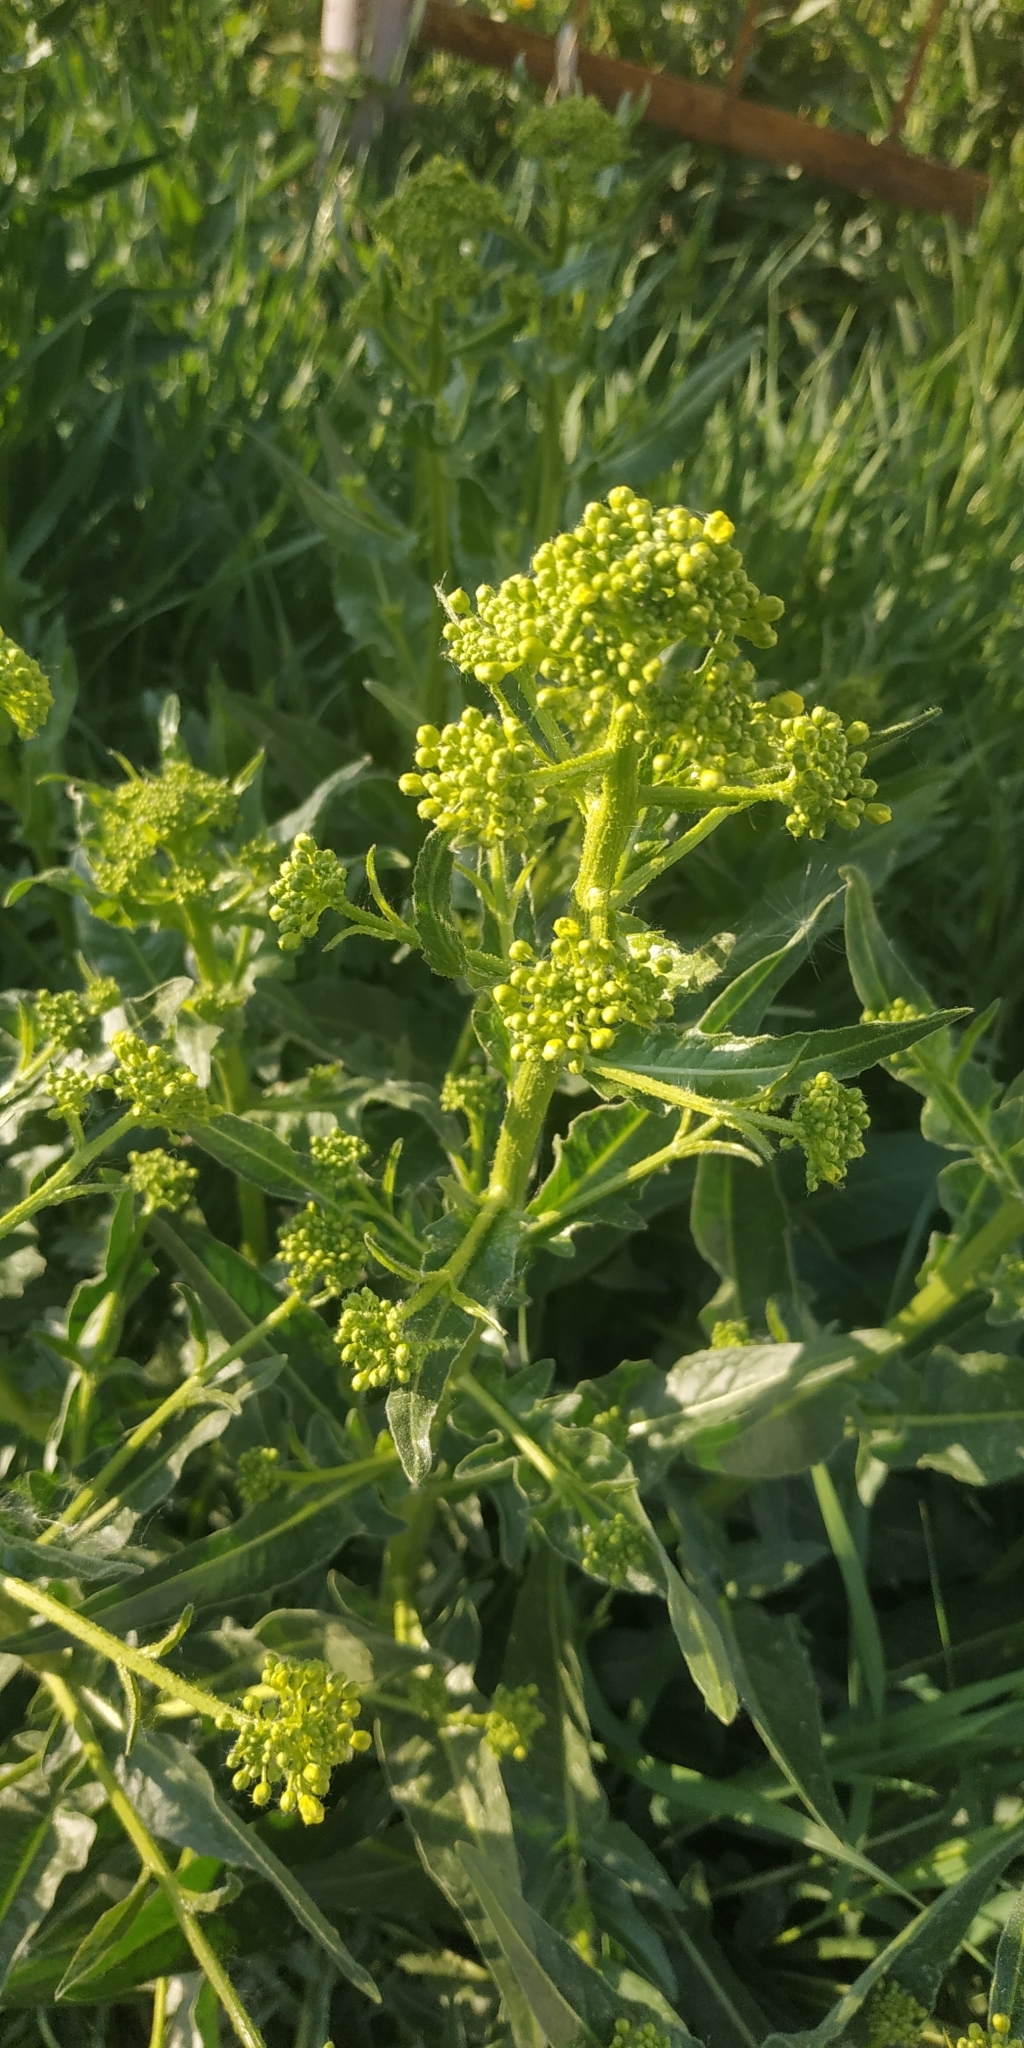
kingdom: Plantae
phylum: Tracheophyta
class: Magnoliopsida
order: Brassicales
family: Brassicaceae
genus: Bunias
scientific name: Bunias orientalis
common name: Warty-cabbage
